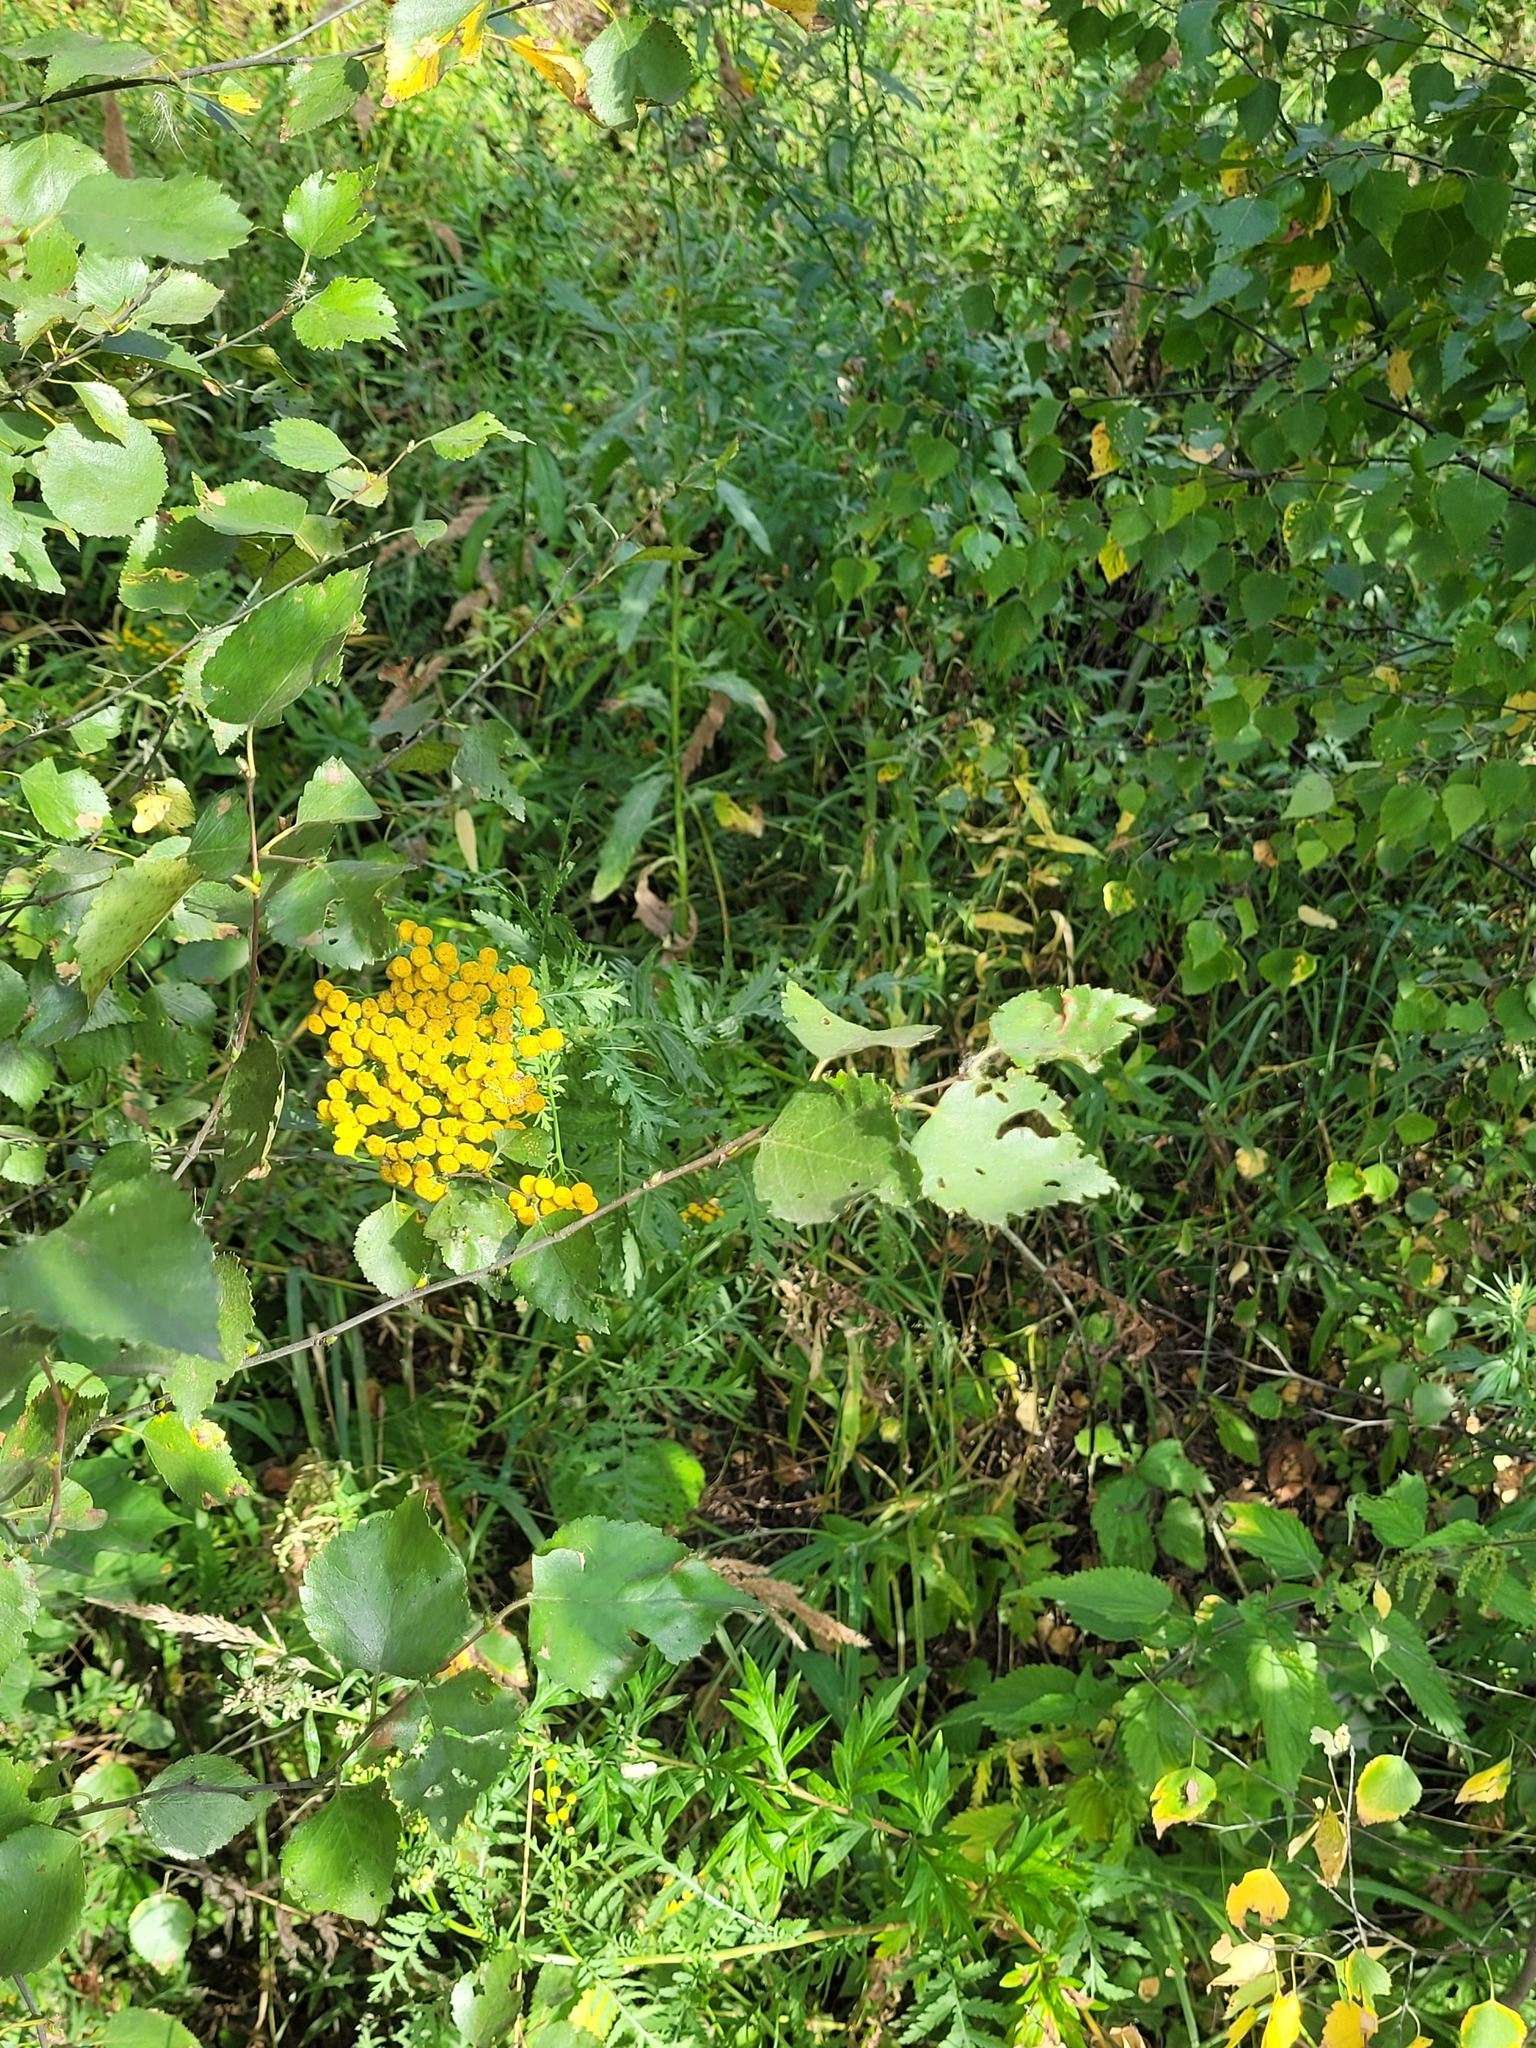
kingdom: Plantae
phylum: Tracheophyta
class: Magnoliopsida
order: Asterales
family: Asteraceae
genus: Tanacetum
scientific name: Tanacetum vulgare
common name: Common tansy
